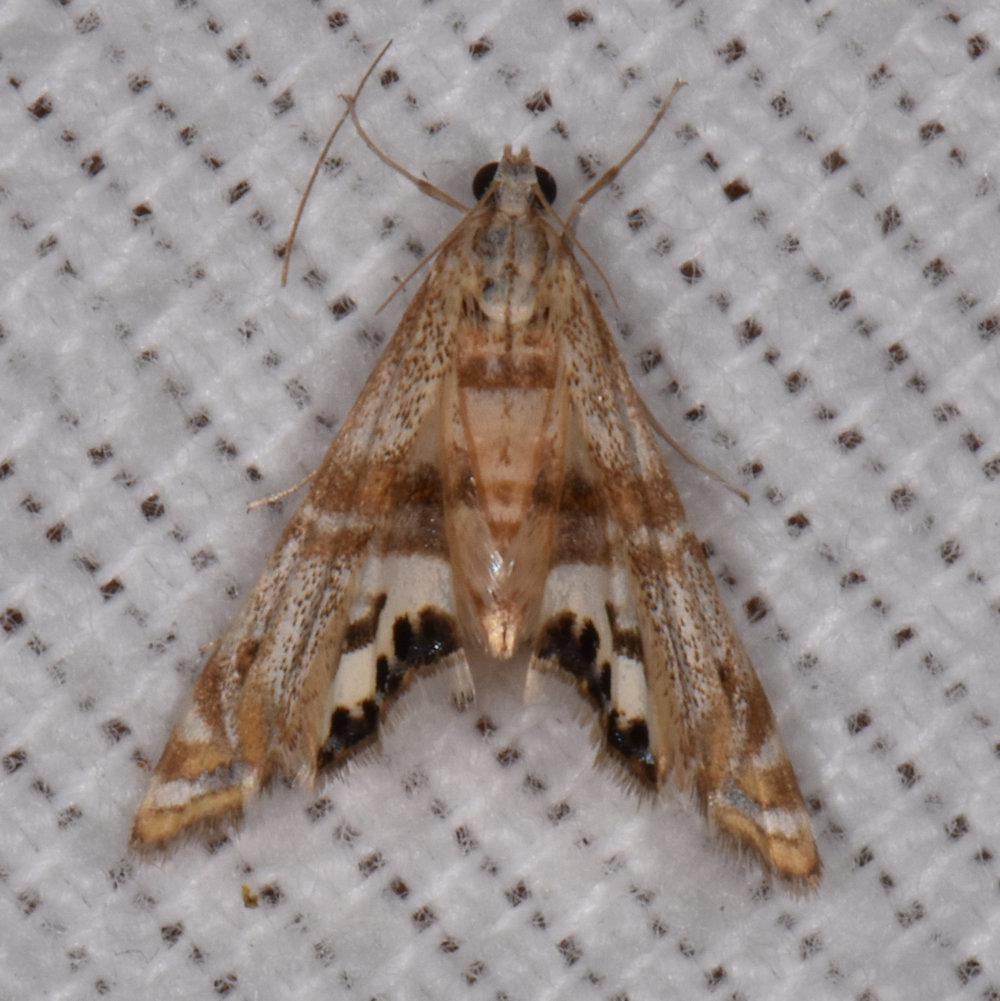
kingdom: Animalia
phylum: Arthropoda
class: Insecta
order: Lepidoptera
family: Crambidae
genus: Petrophila
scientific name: Petrophila bifascialis
